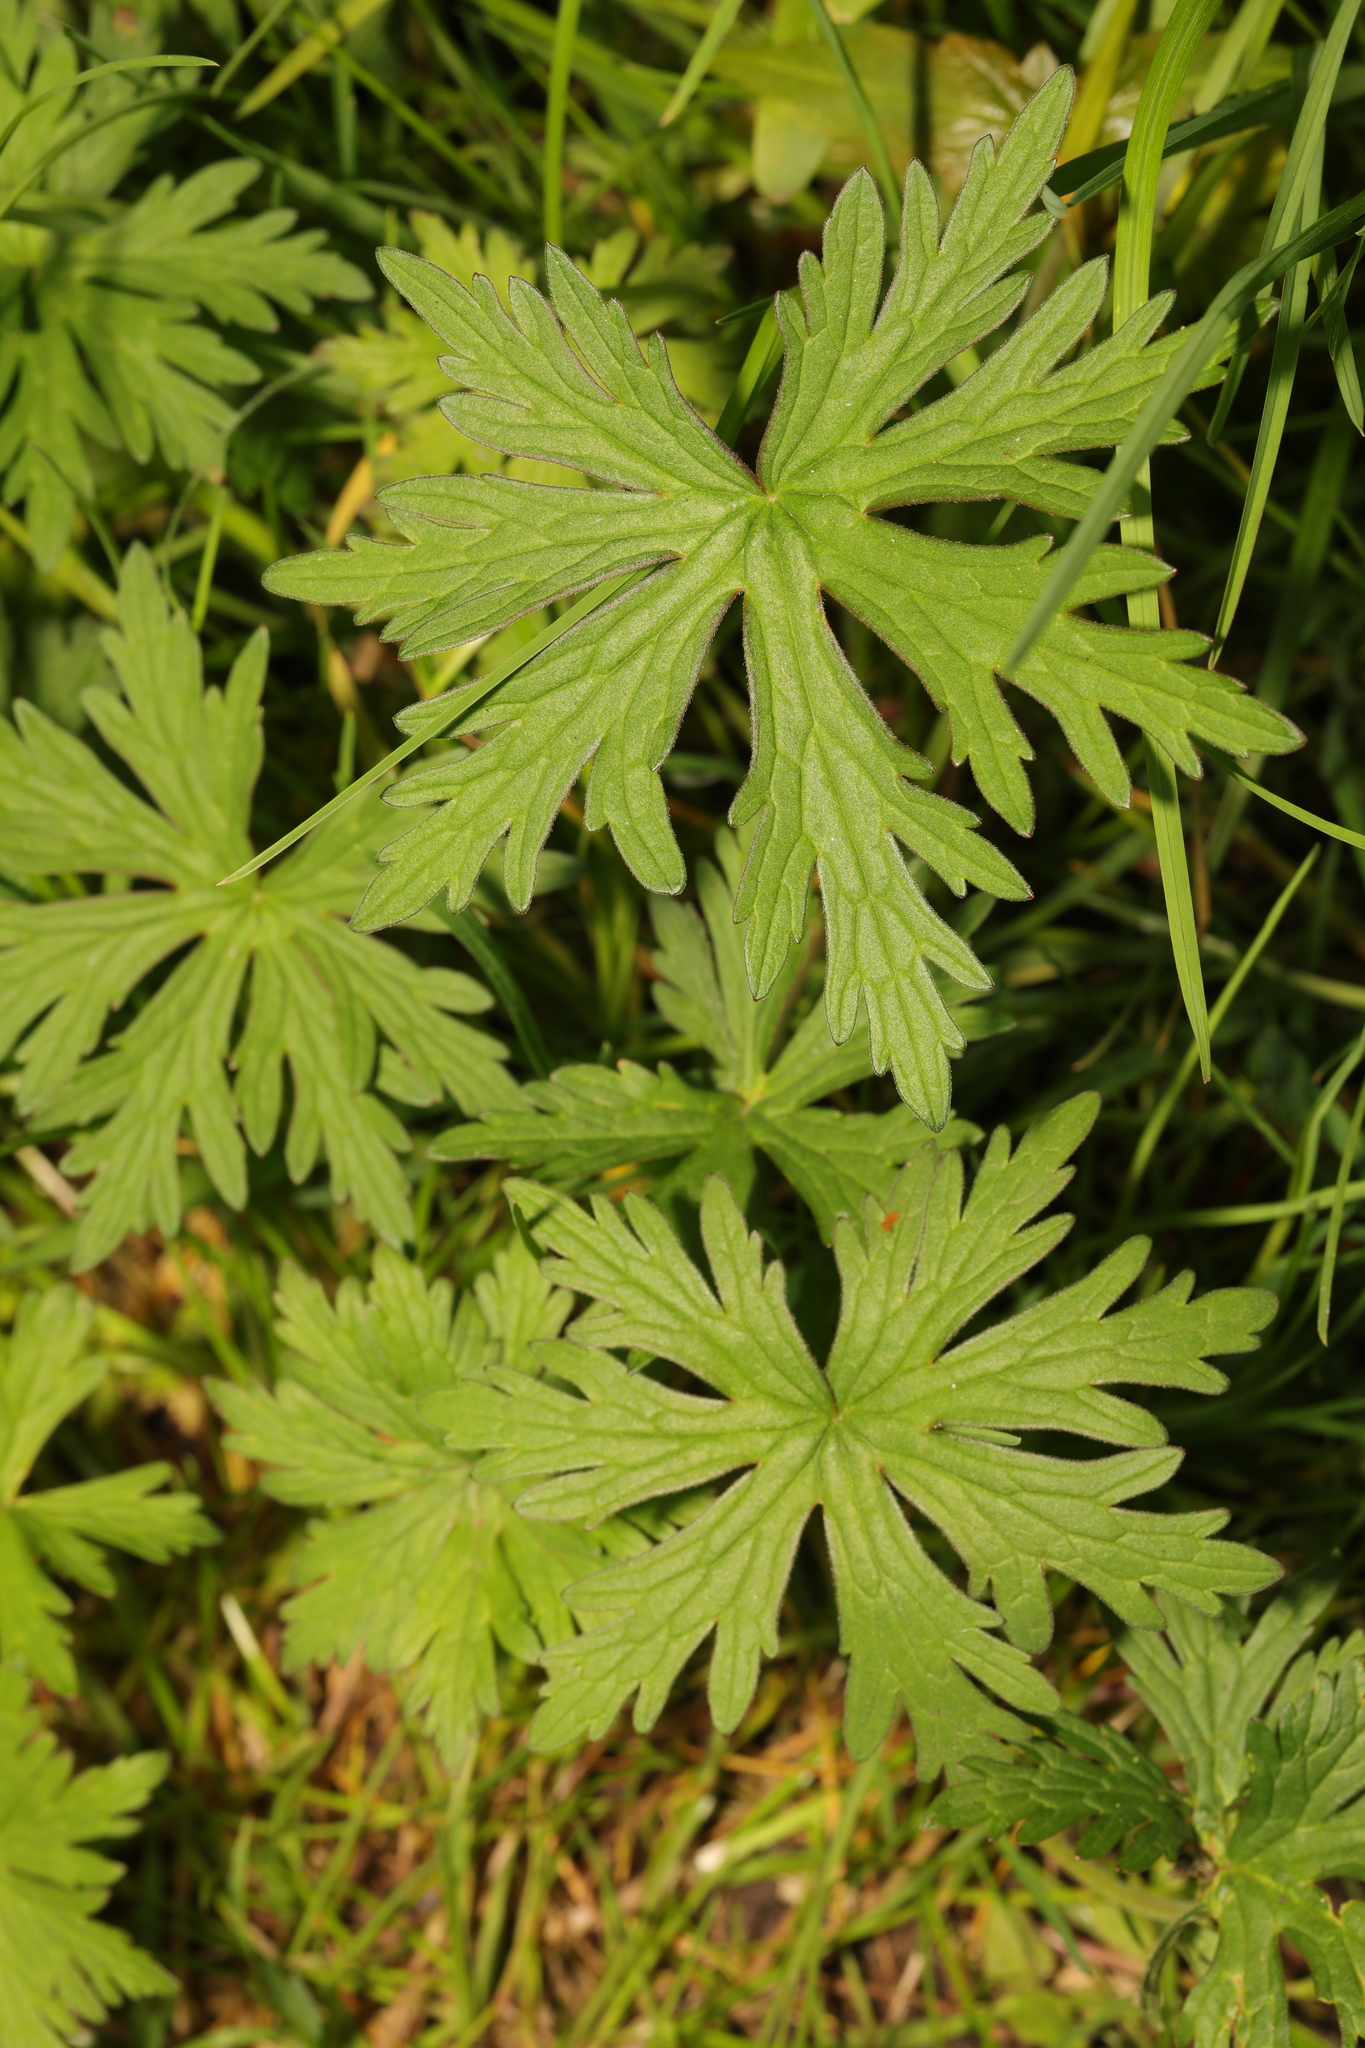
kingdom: Plantae
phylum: Tracheophyta
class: Magnoliopsida
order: Geraniales
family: Geraniaceae
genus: Geranium
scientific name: Geranium pratense
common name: Meadow crane's-bill
